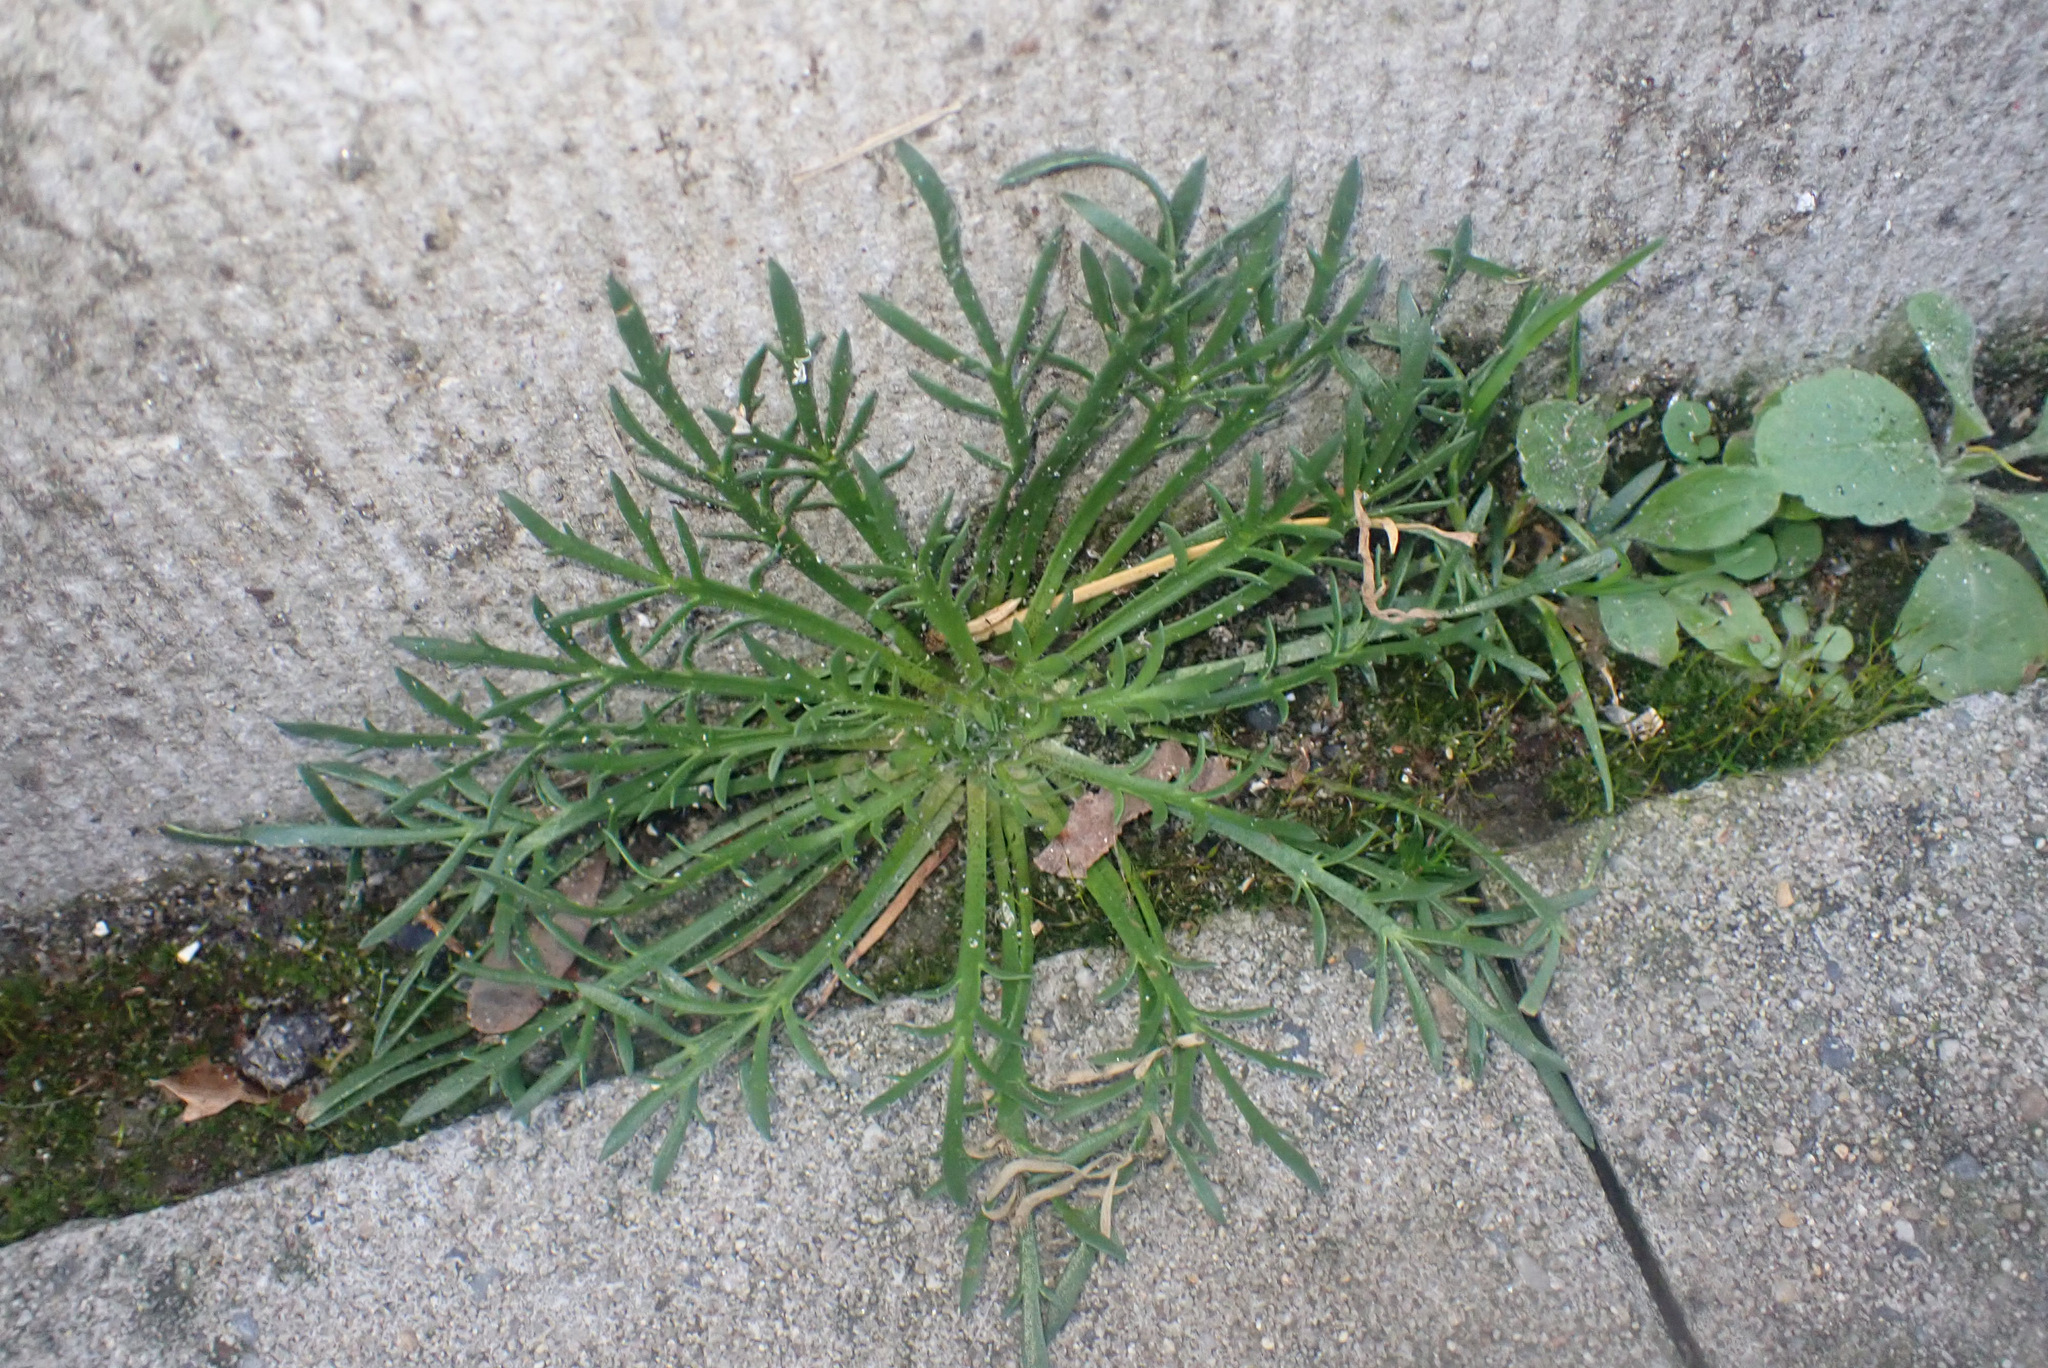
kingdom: Plantae
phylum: Tracheophyta
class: Magnoliopsida
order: Lamiales
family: Plantaginaceae
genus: Plantago
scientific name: Plantago coronopus
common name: Buck's-horn plantain
